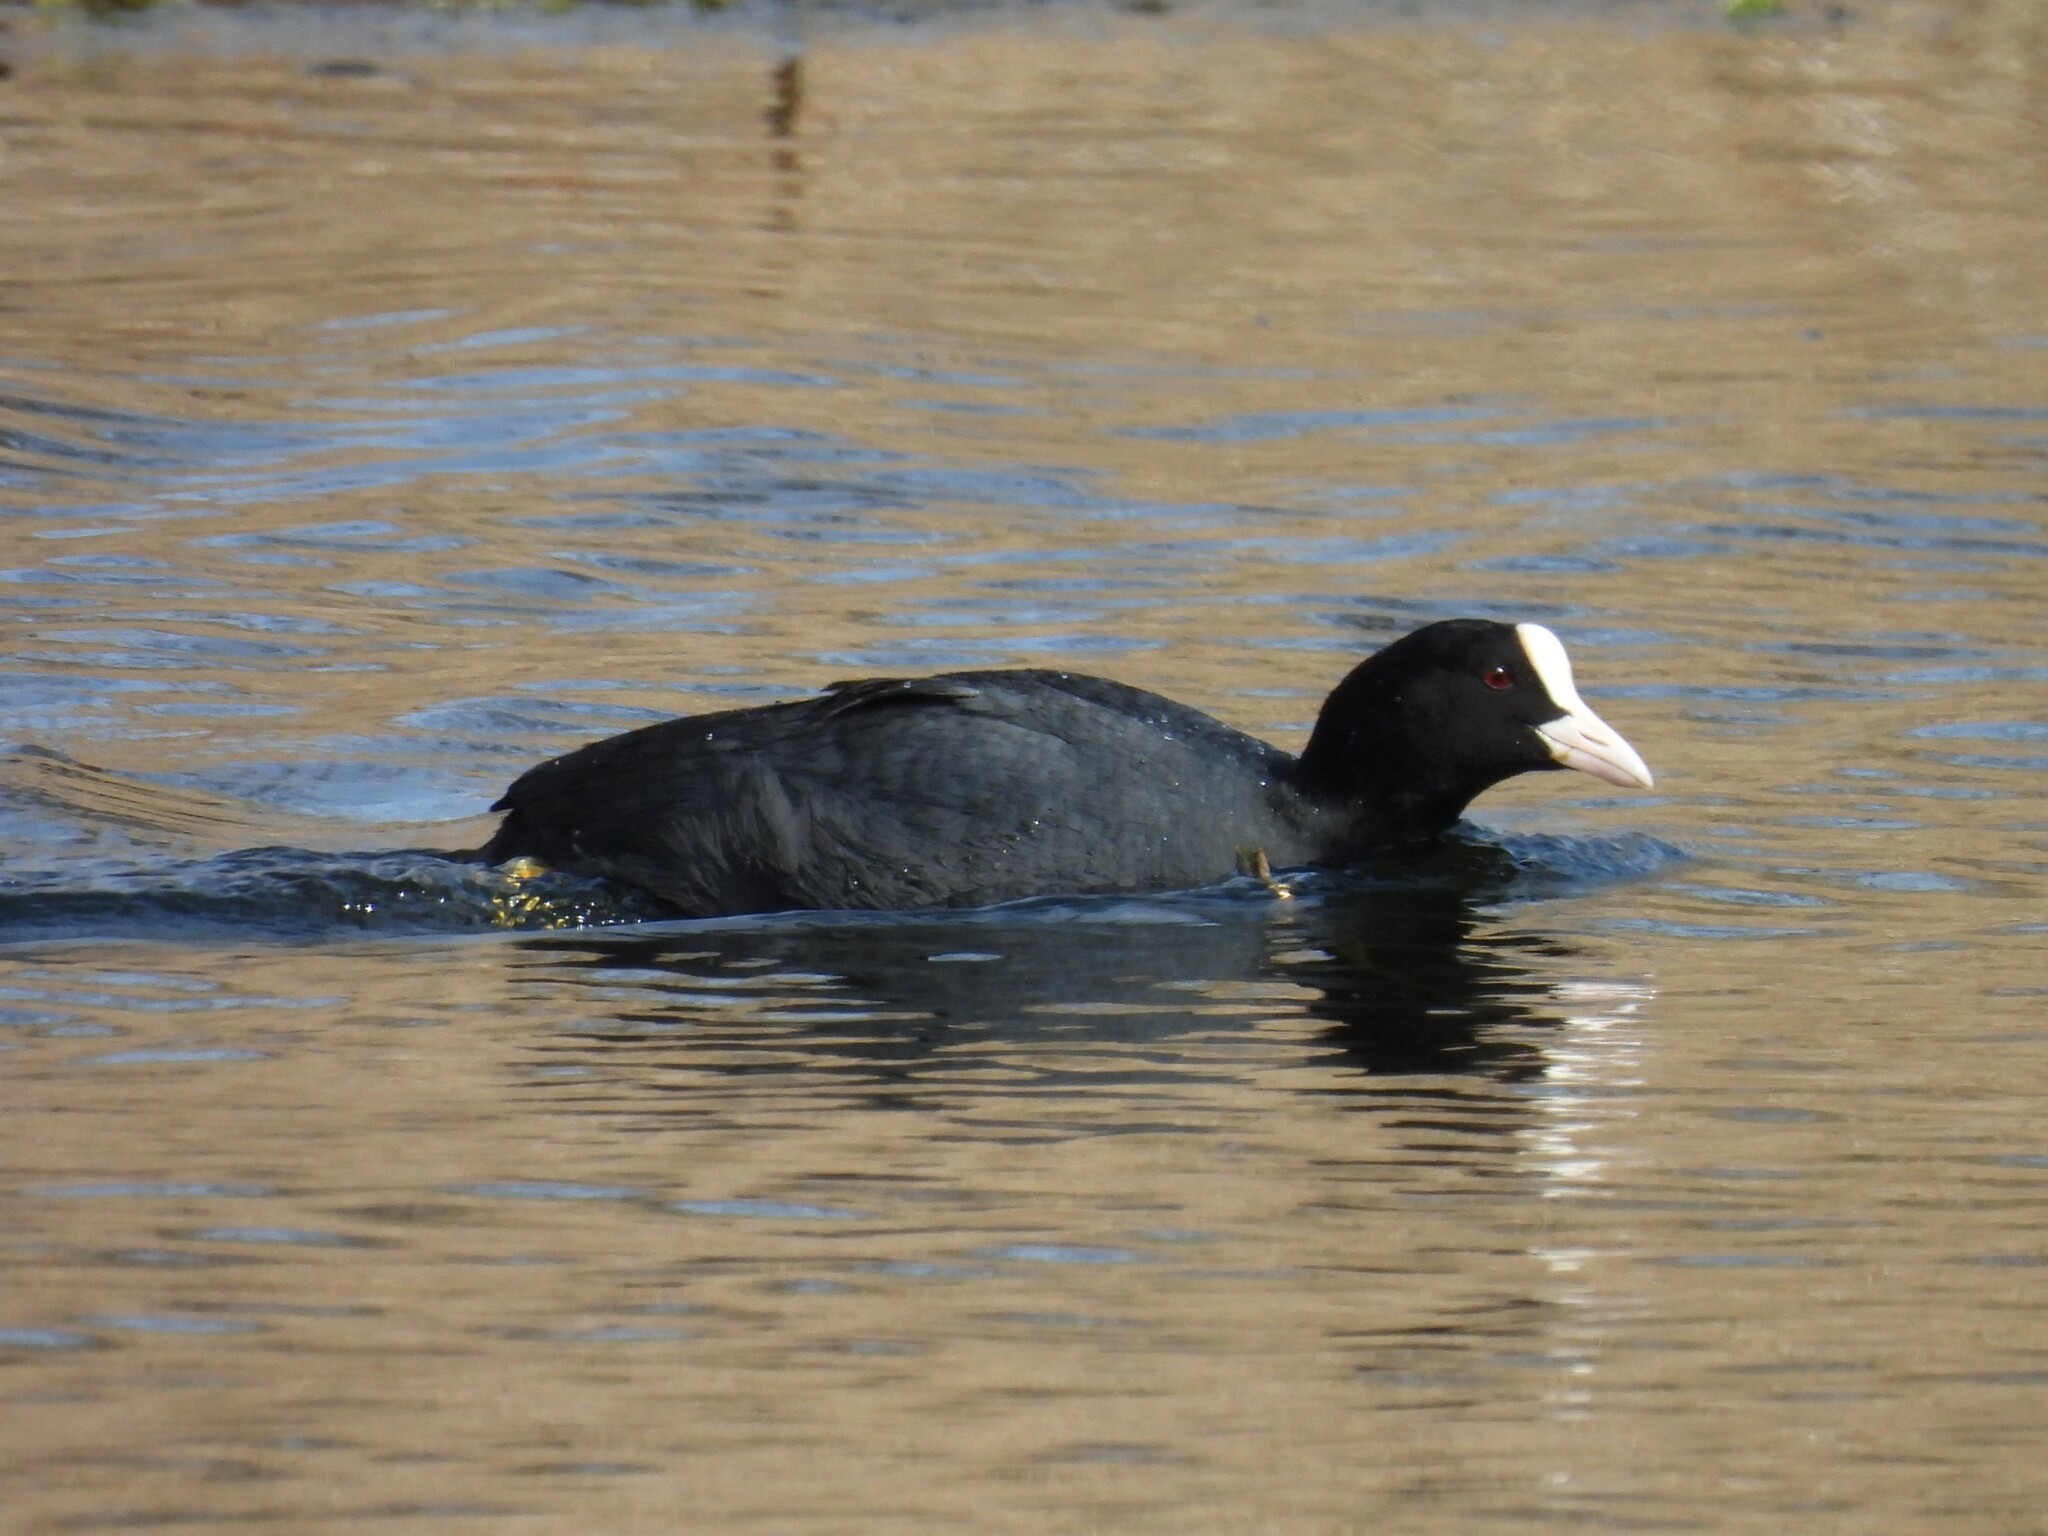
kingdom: Animalia
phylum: Chordata
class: Aves
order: Gruiformes
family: Rallidae
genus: Fulica
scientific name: Fulica atra
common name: Eurasian coot
